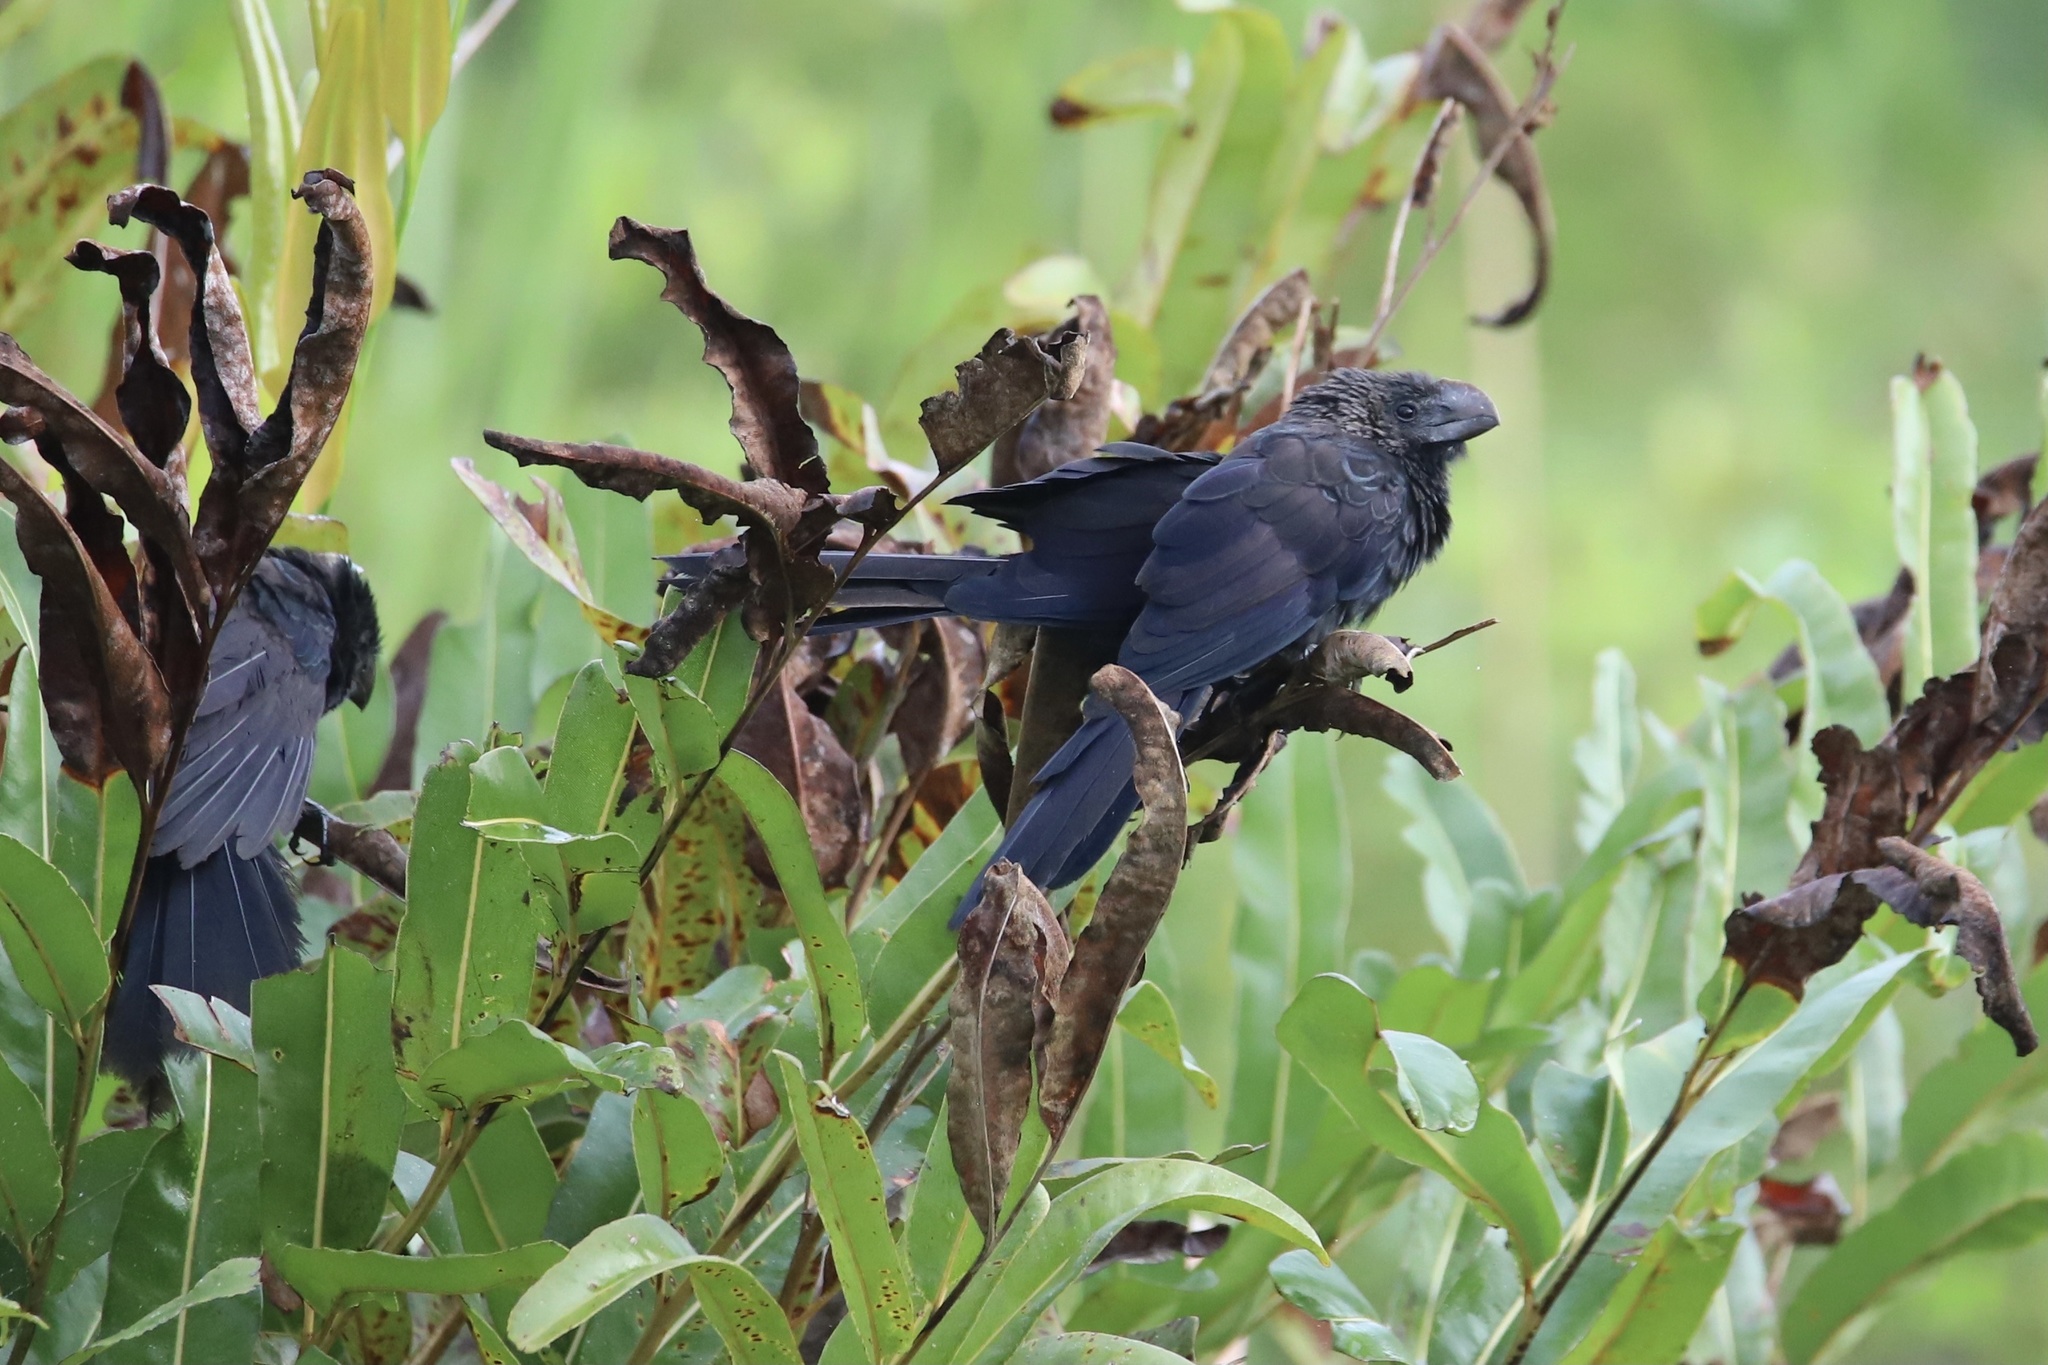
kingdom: Animalia
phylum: Chordata
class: Aves
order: Cuculiformes
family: Cuculidae
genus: Crotophaga
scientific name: Crotophaga ani
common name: Smooth-billed ani
